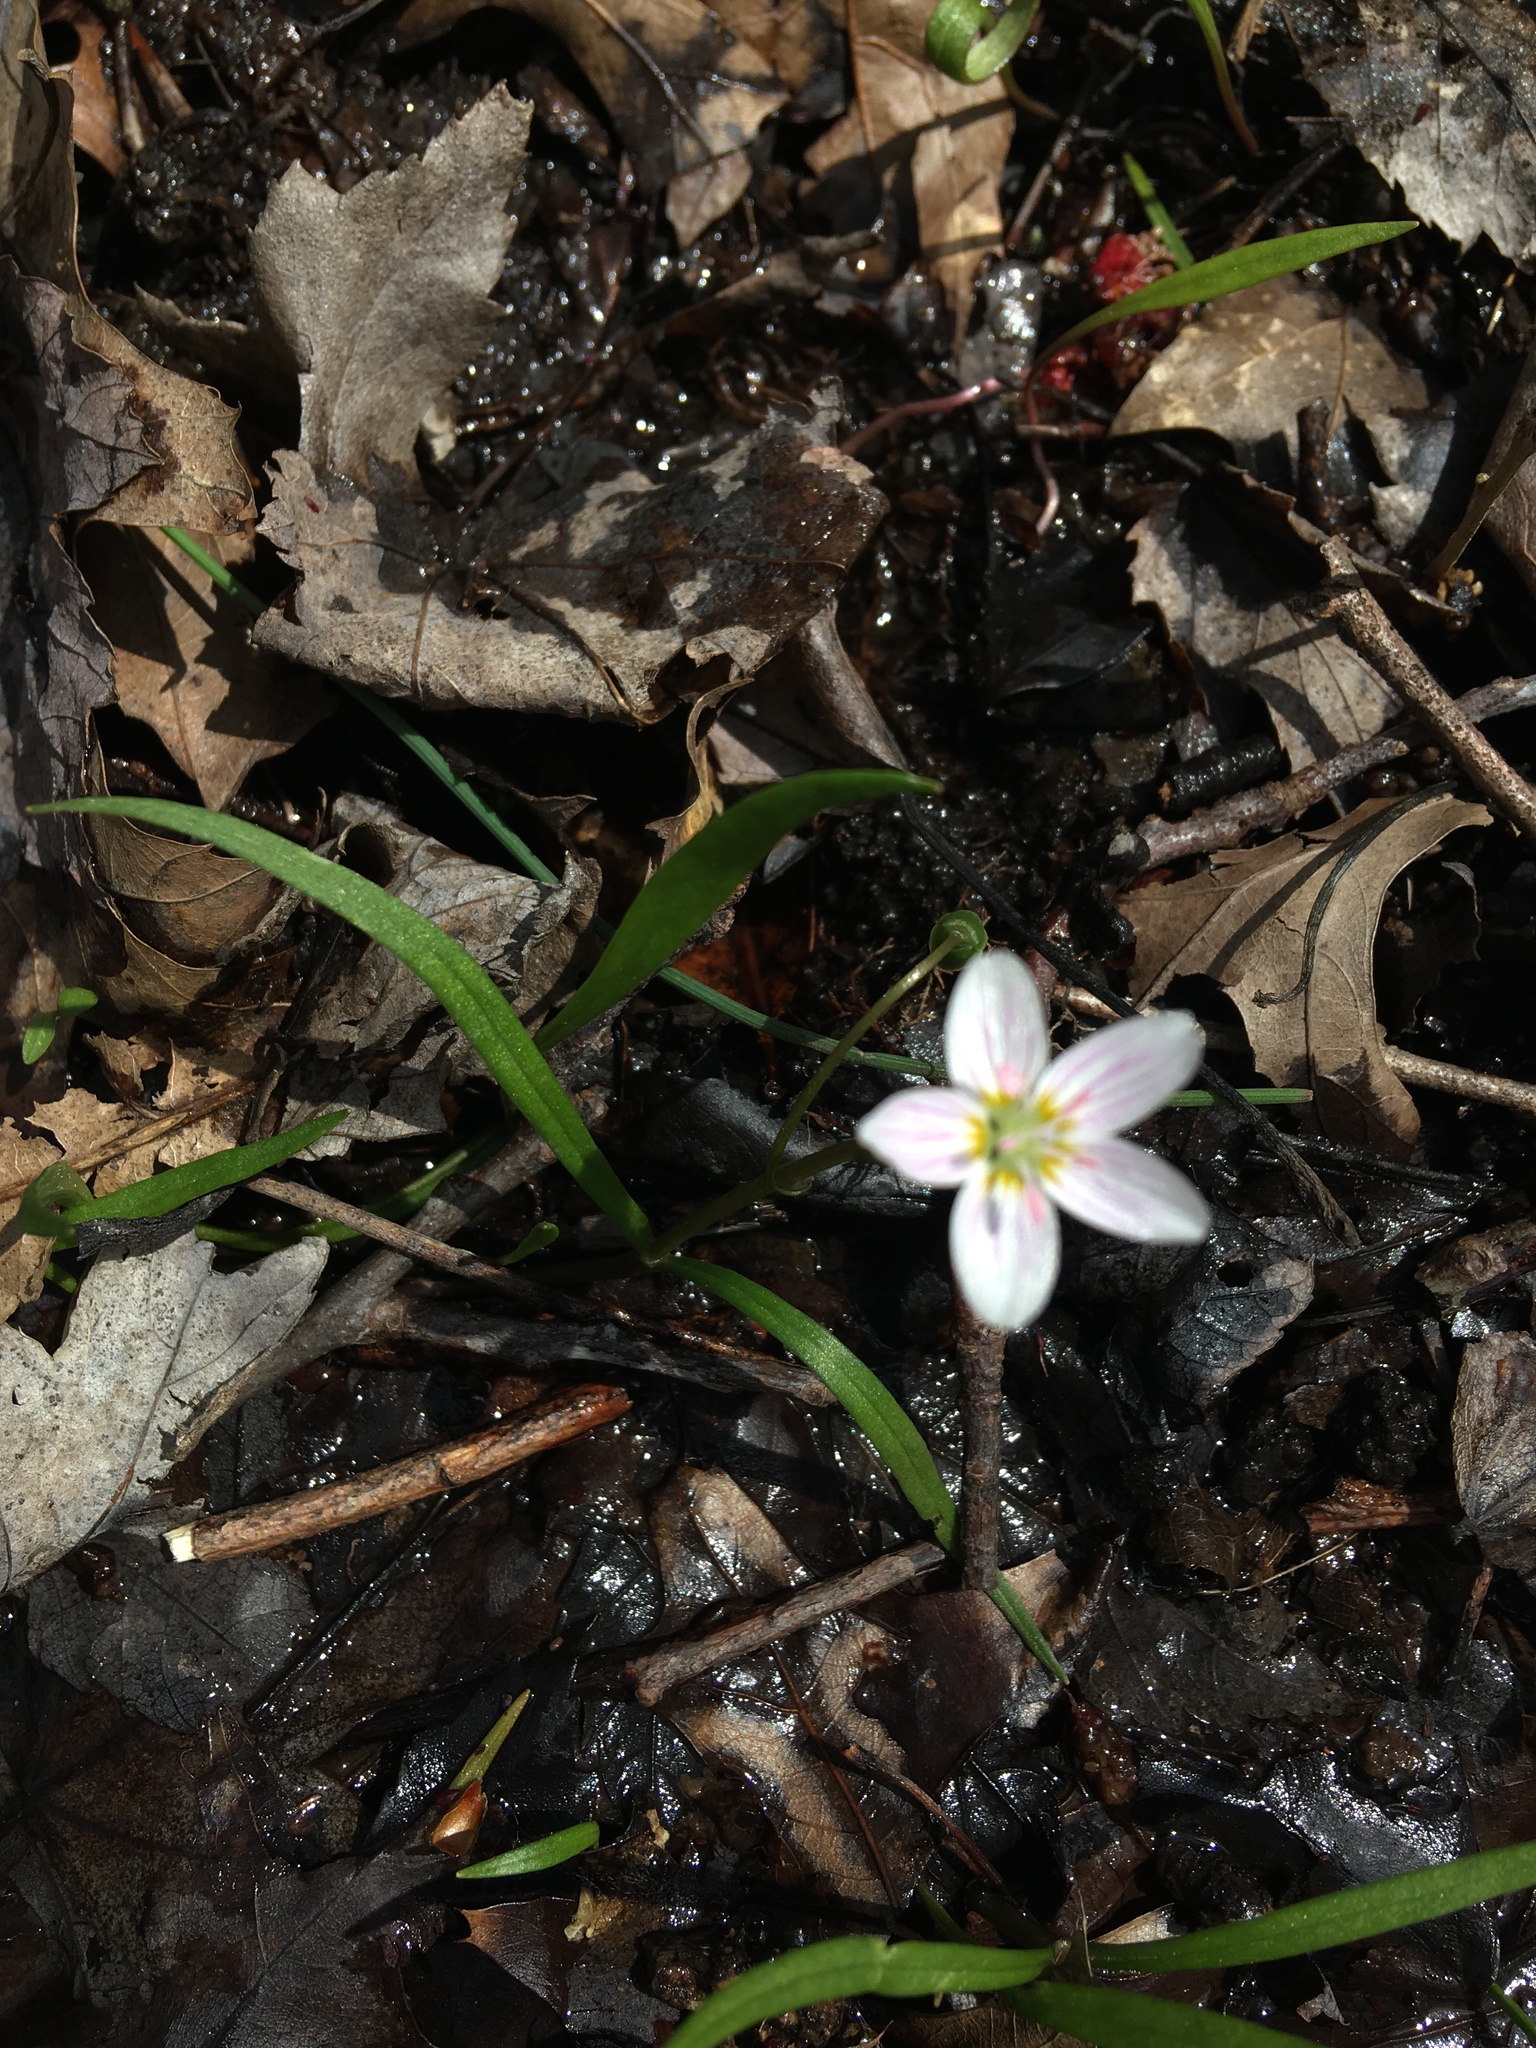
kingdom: Plantae
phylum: Tracheophyta
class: Magnoliopsida
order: Caryophyllales
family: Montiaceae
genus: Claytonia
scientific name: Claytonia virginica
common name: Virginia springbeauty
